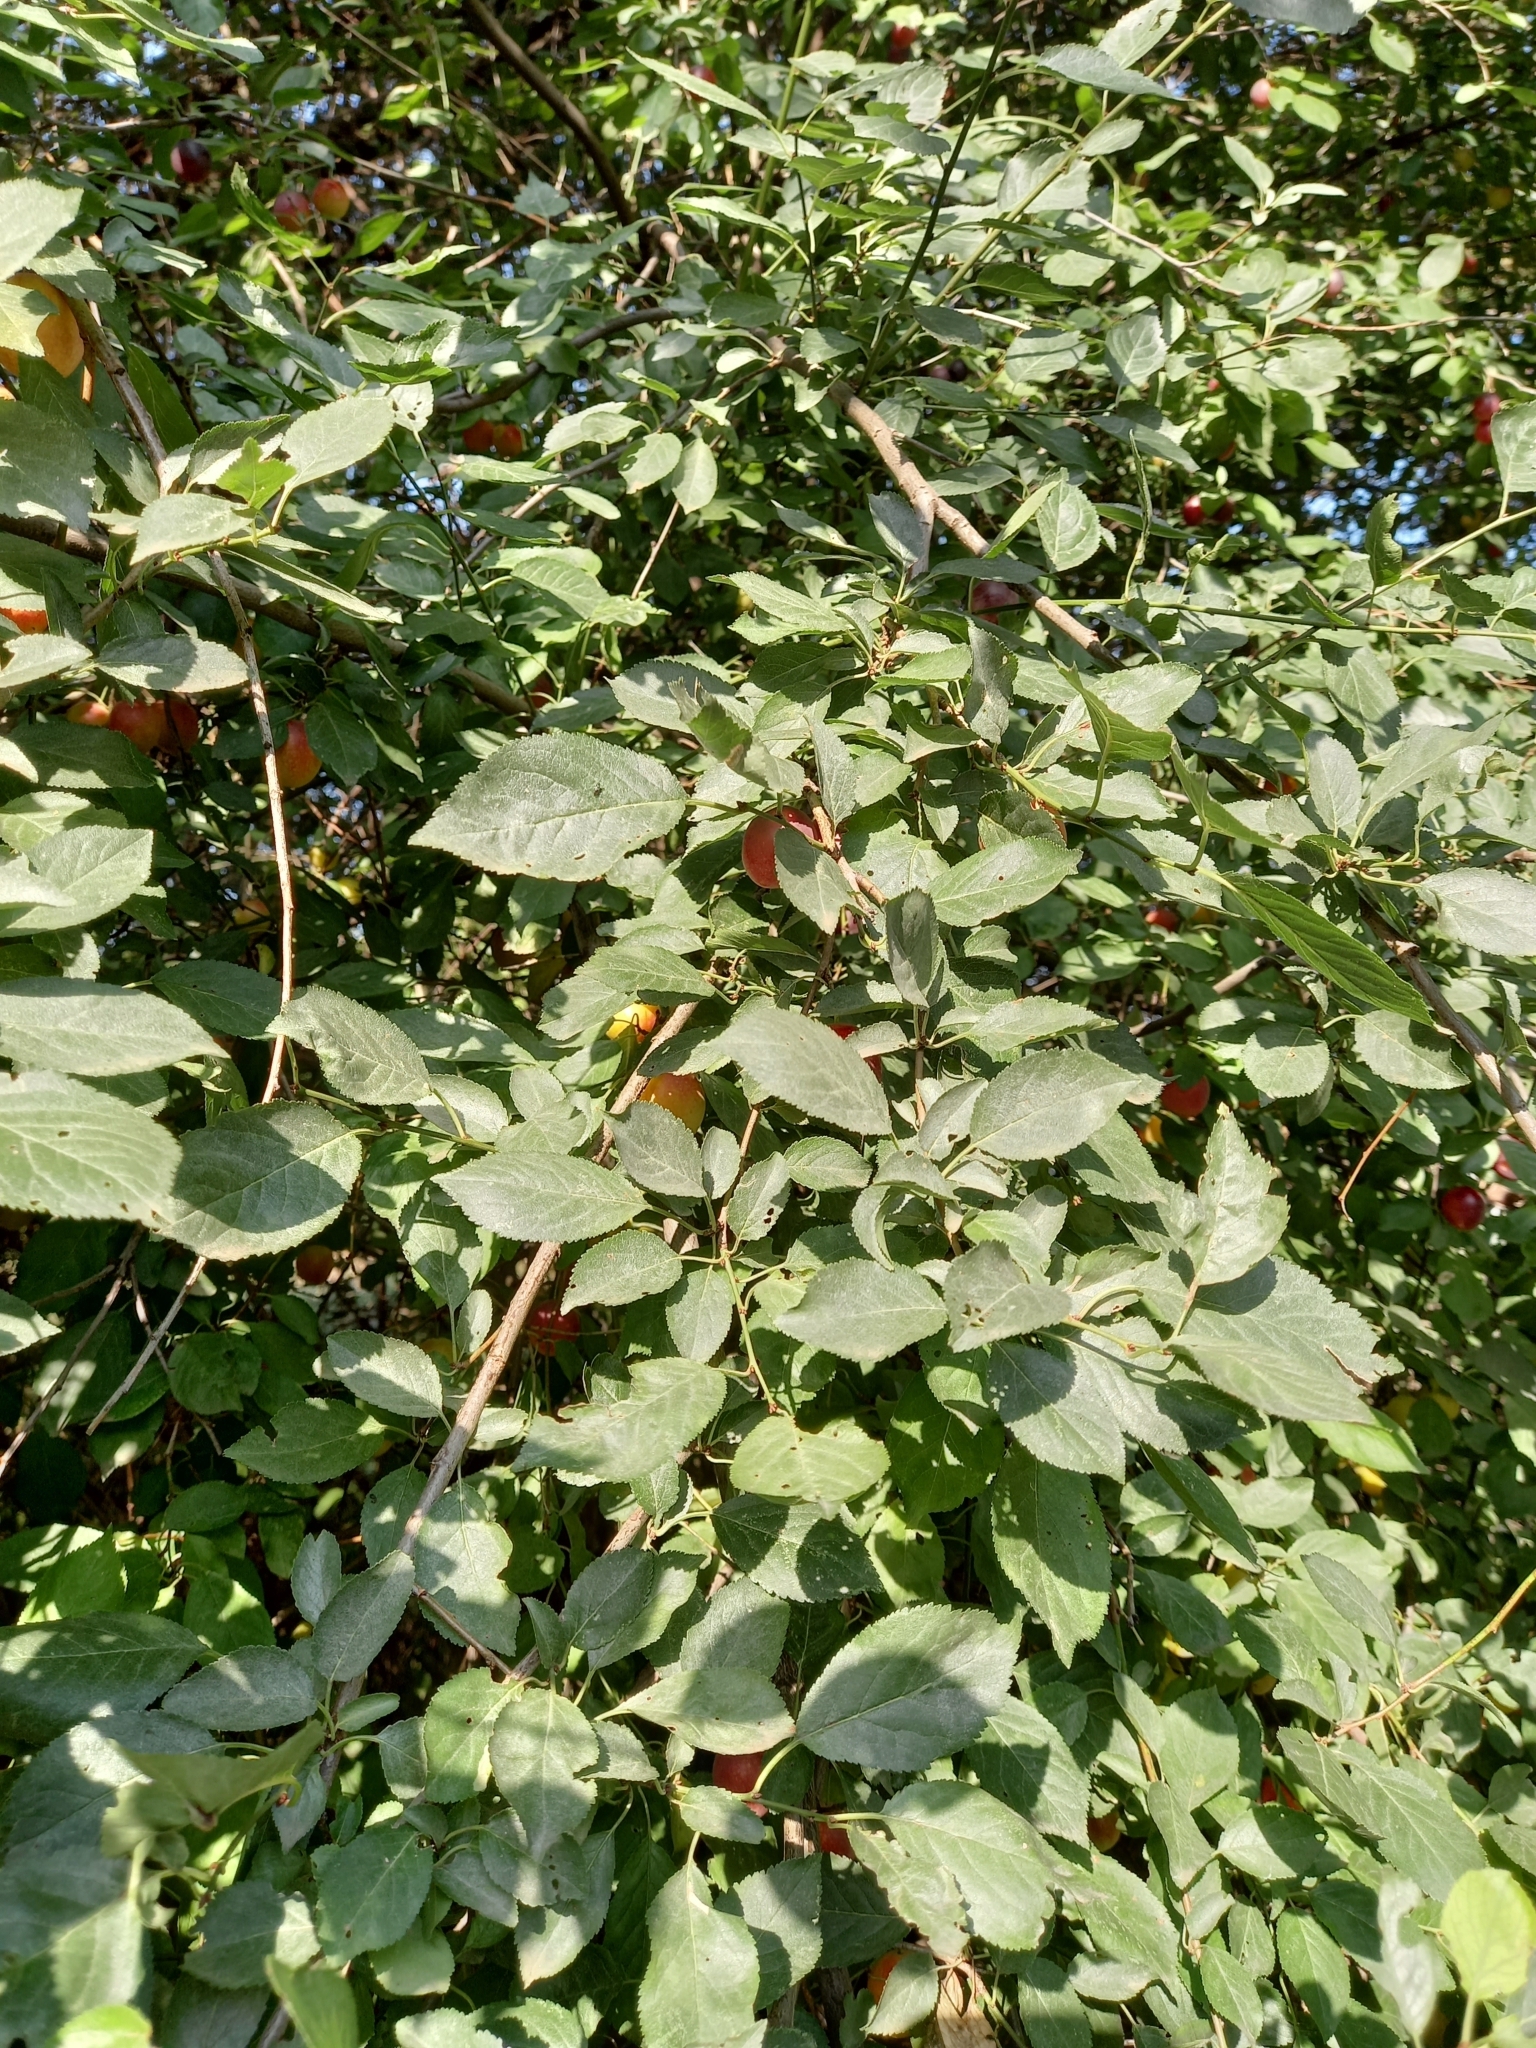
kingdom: Plantae
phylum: Tracheophyta
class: Magnoliopsida
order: Rosales
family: Rosaceae
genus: Prunus
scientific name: Prunus cerasifera
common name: Cherry plum
